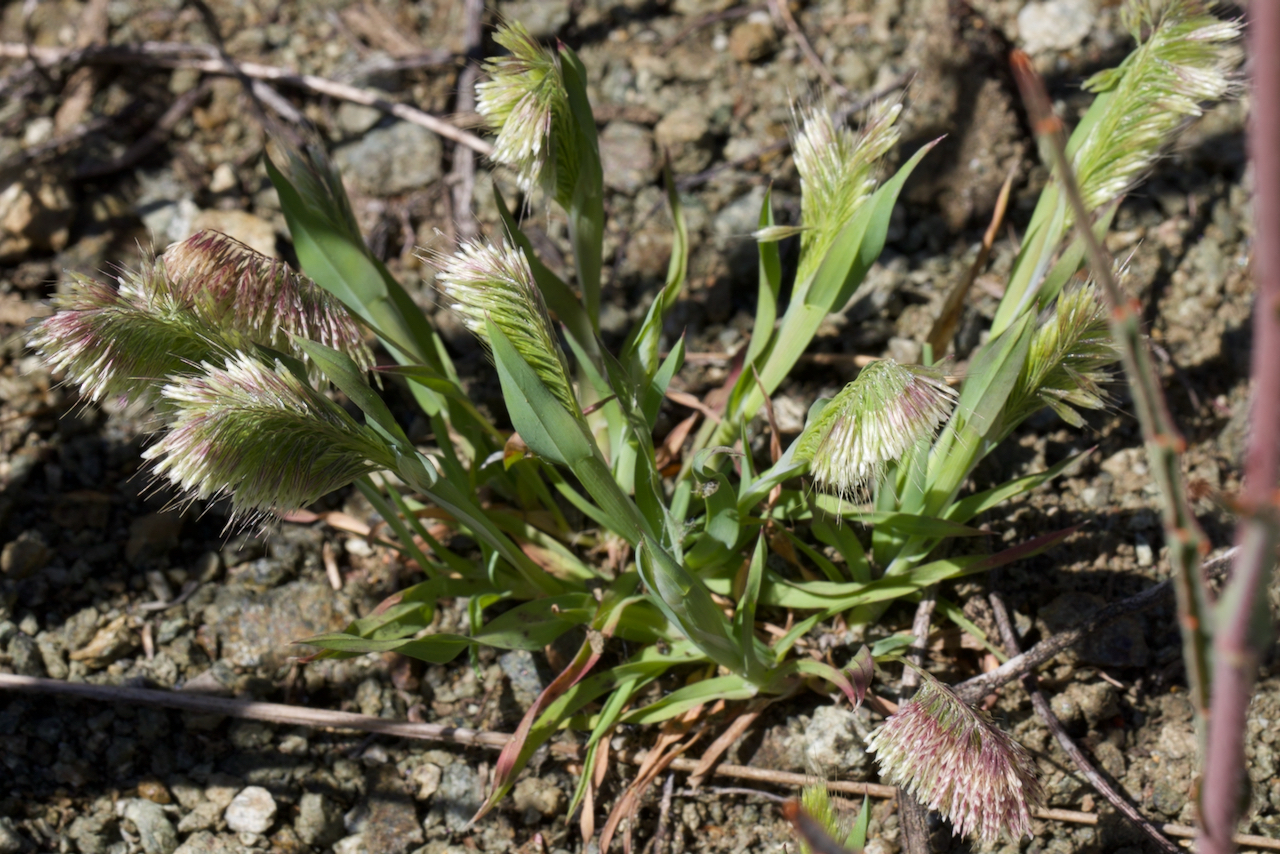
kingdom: Plantae
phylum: Tracheophyta
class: Liliopsida
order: Poales
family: Poaceae
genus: Lamarckia
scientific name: Lamarckia aurea
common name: Golden dog's-tail
